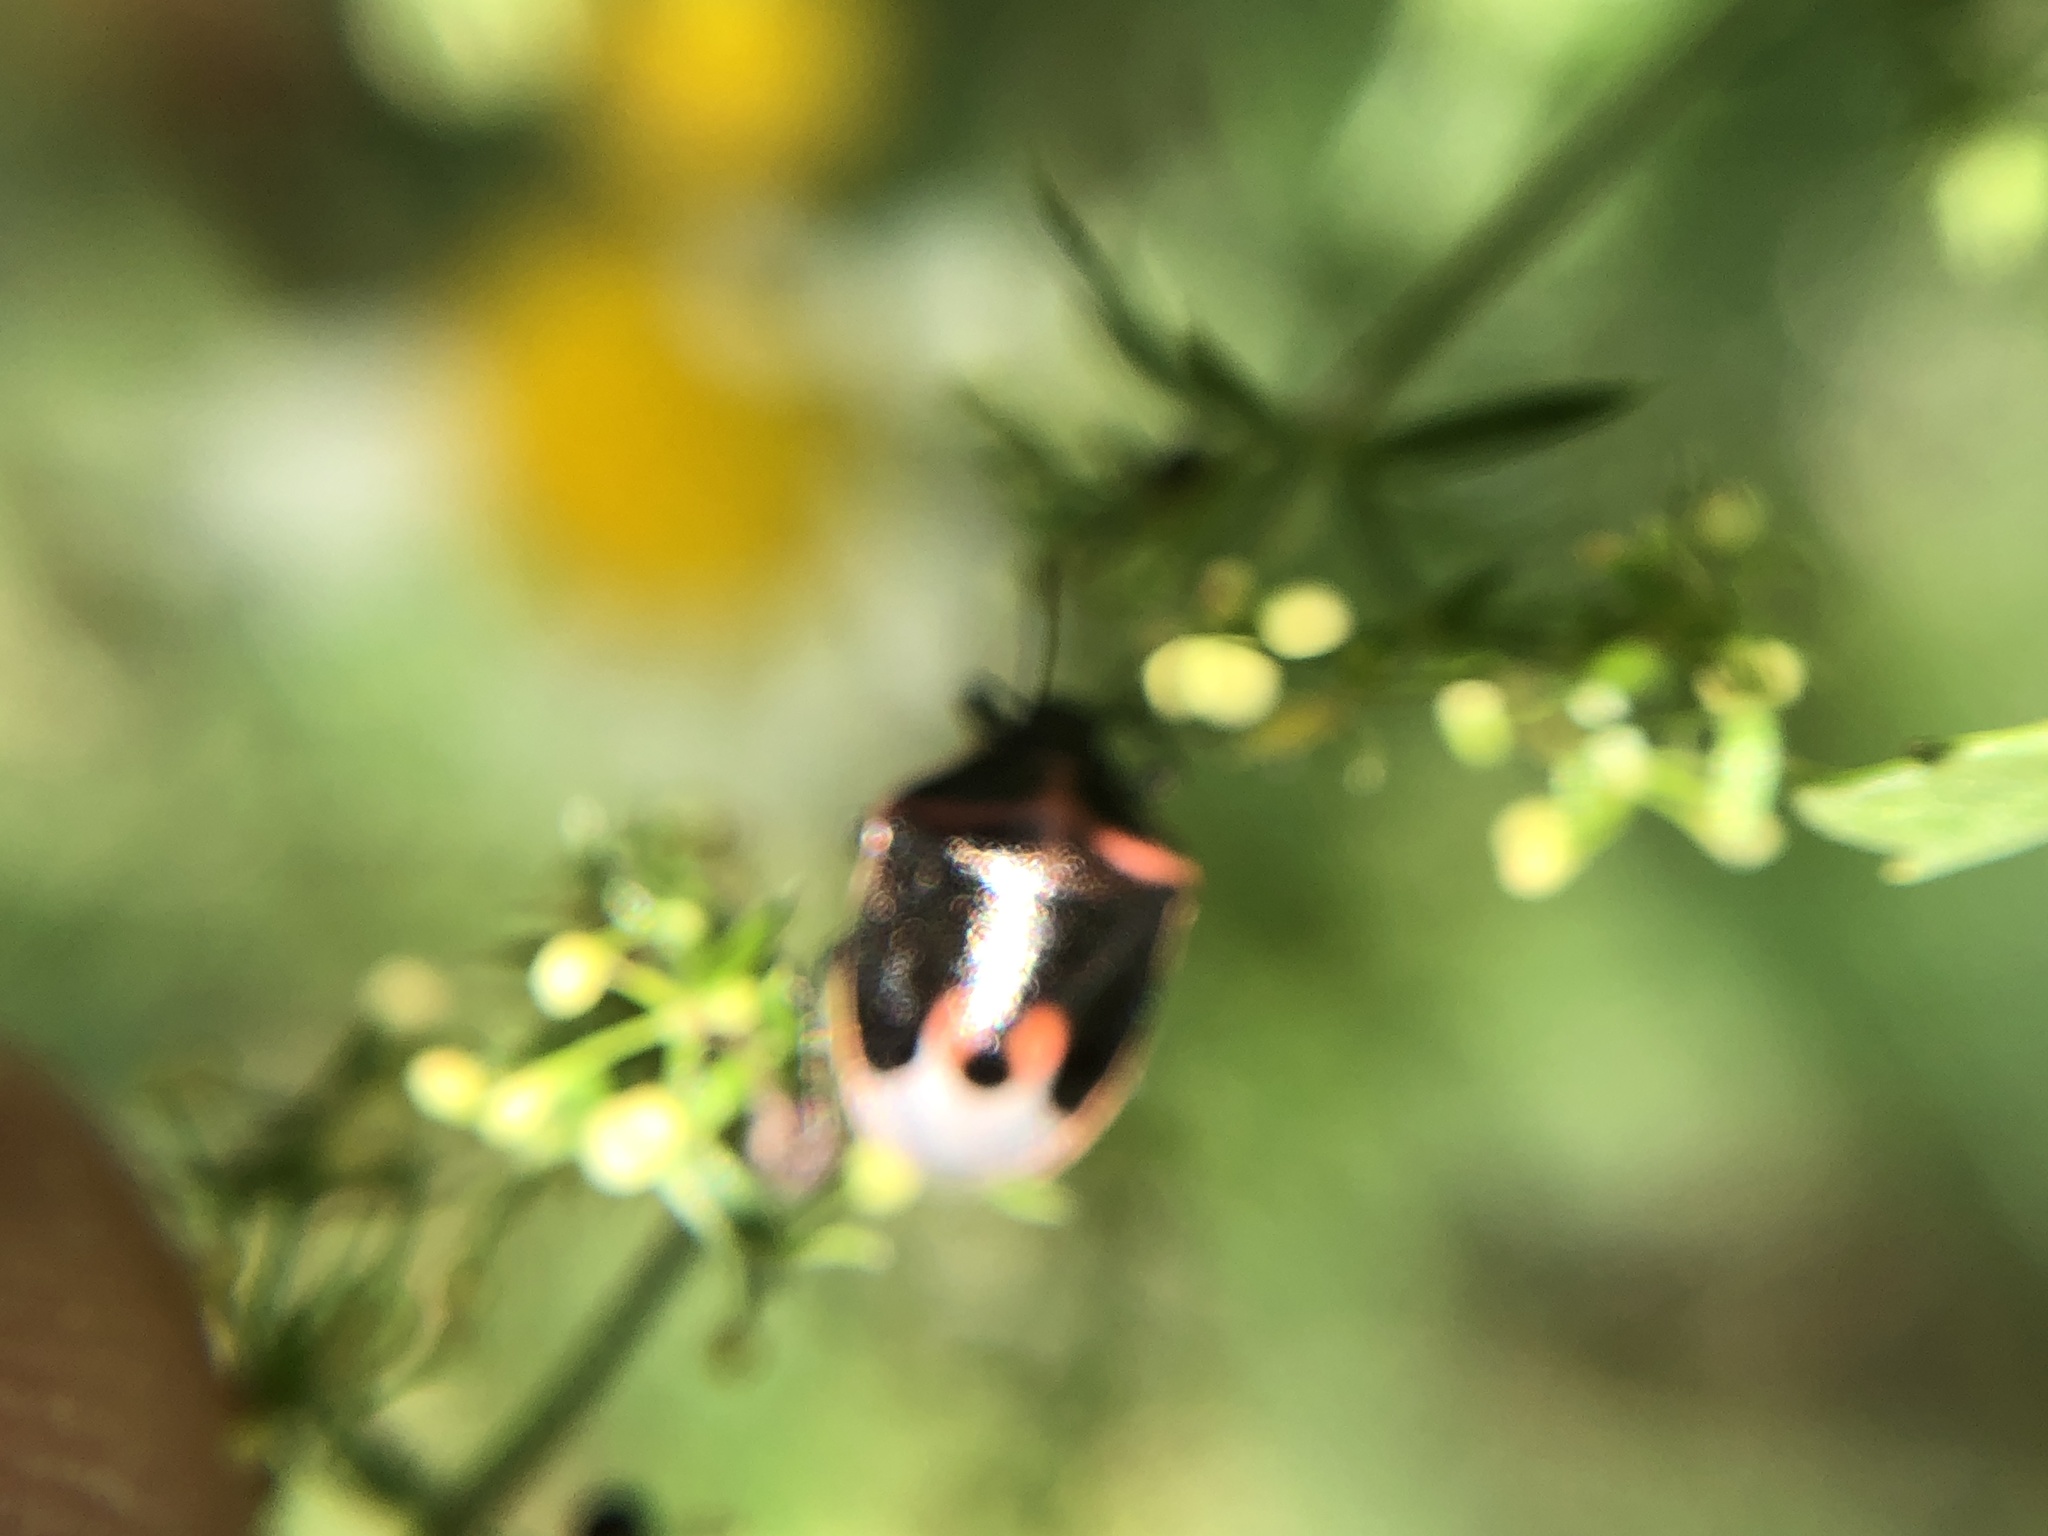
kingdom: Animalia
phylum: Arthropoda
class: Insecta
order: Hemiptera
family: Pentatomidae
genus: Cosmopepla
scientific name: Cosmopepla lintneriana
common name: Twice-stabbed stink bug
